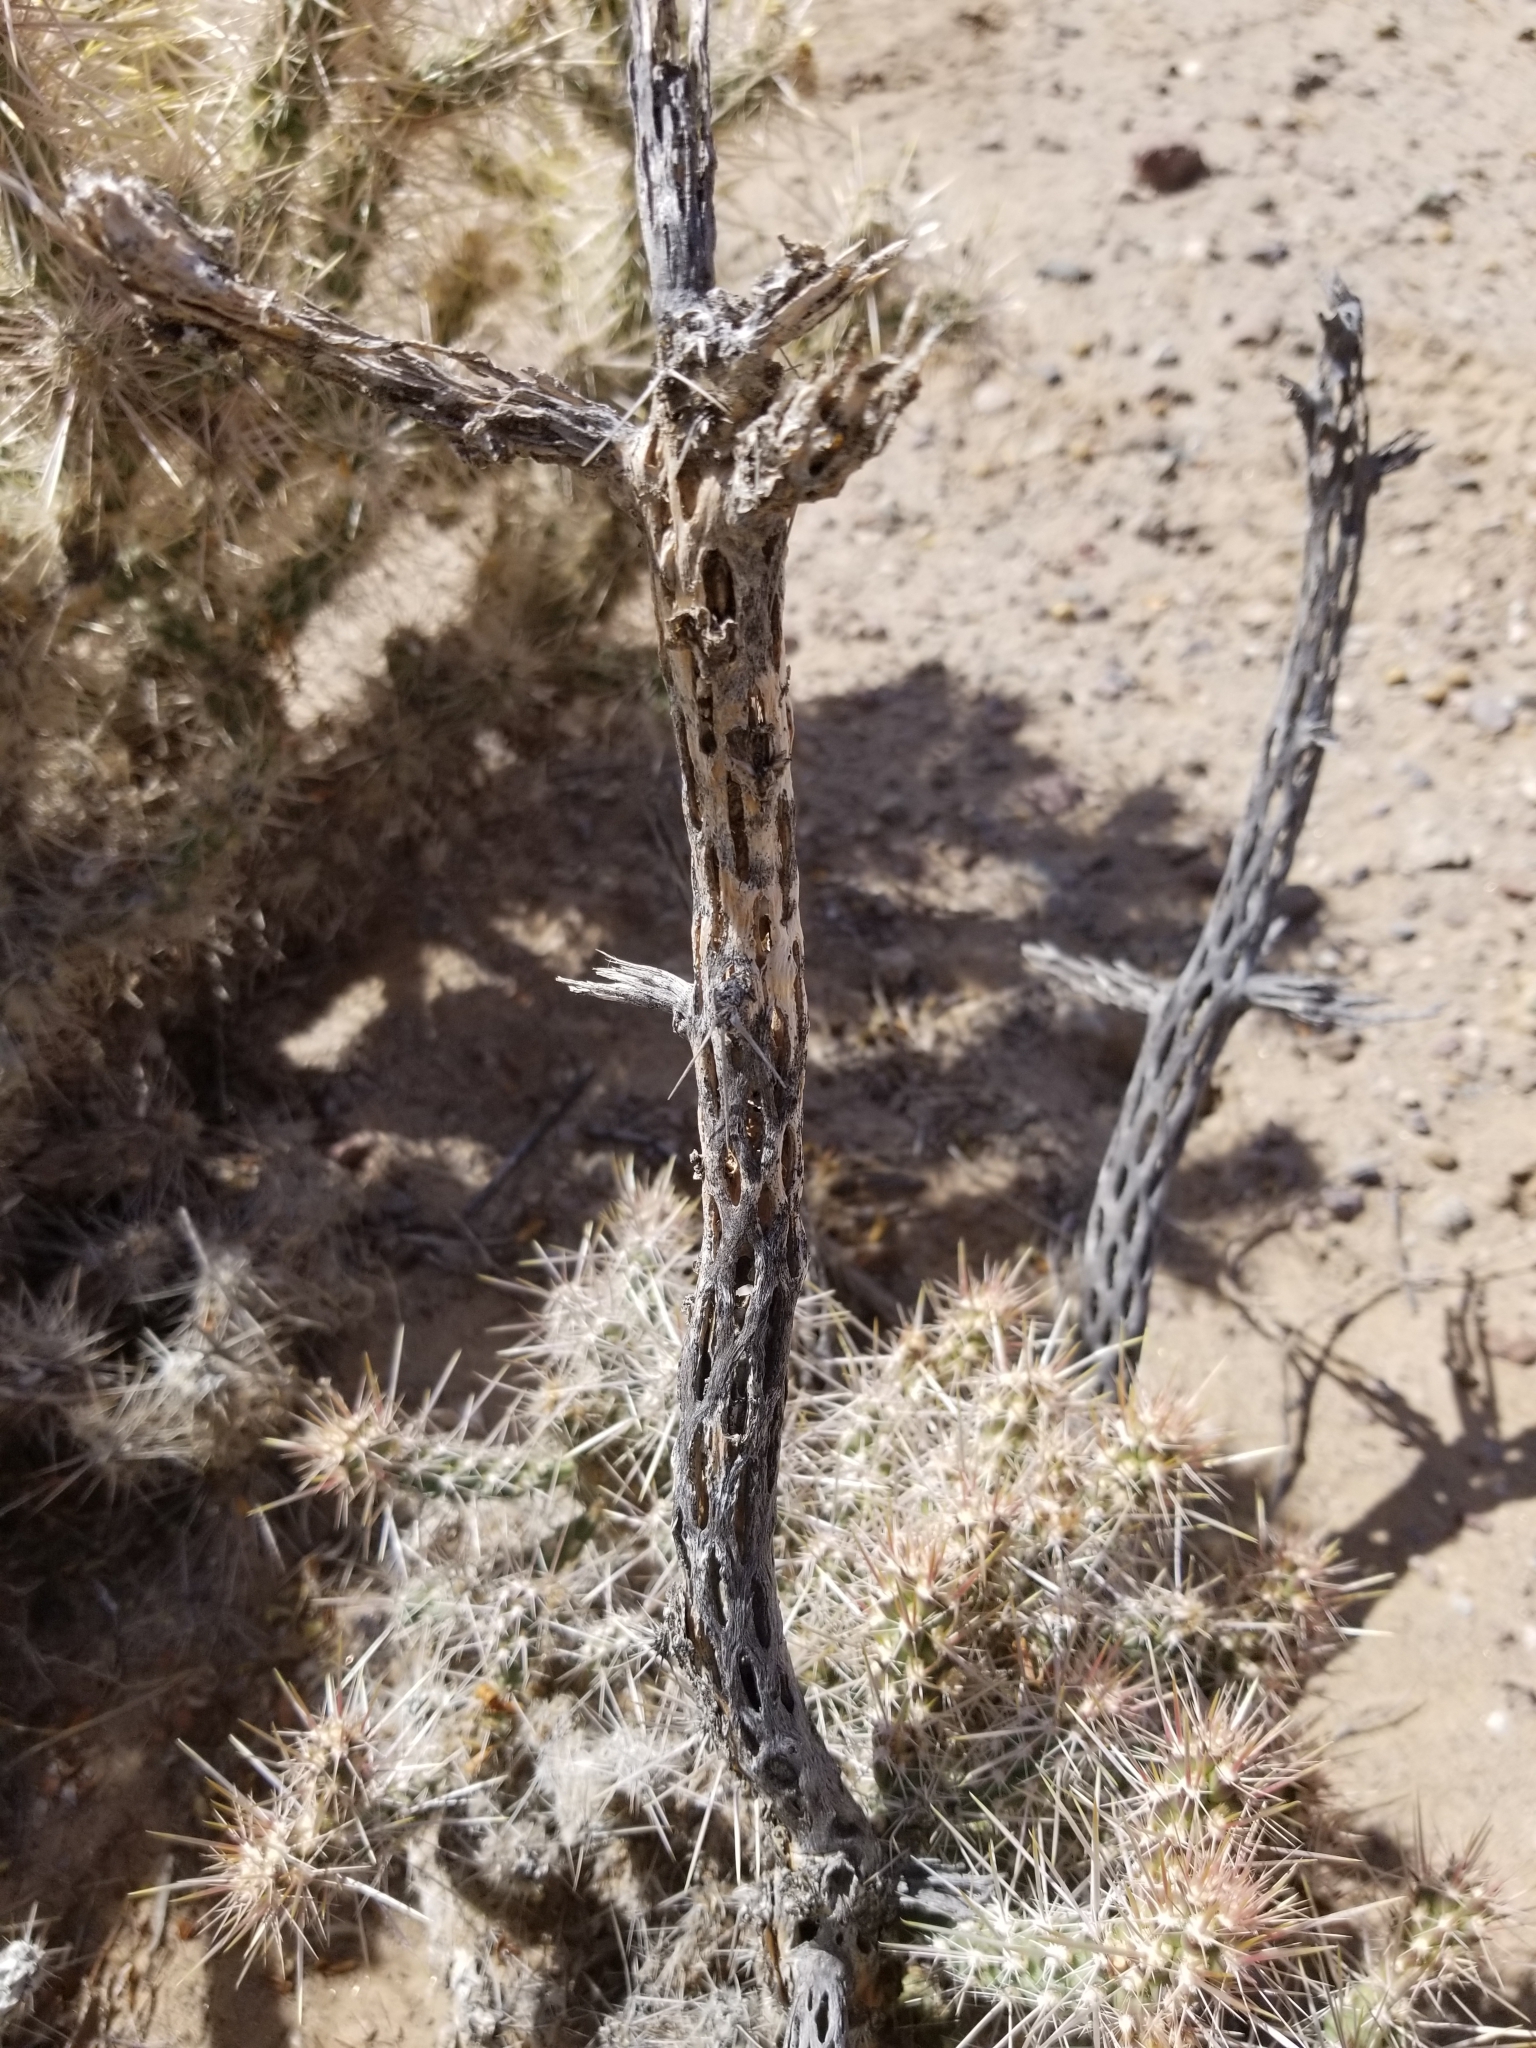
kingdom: Plantae
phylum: Tracheophyta
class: Magnoliopsida
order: Caryophyllales
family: Cactaceae
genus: Cylindropuntia
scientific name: Cylindropuntia echinocarpa
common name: Ground cholla
